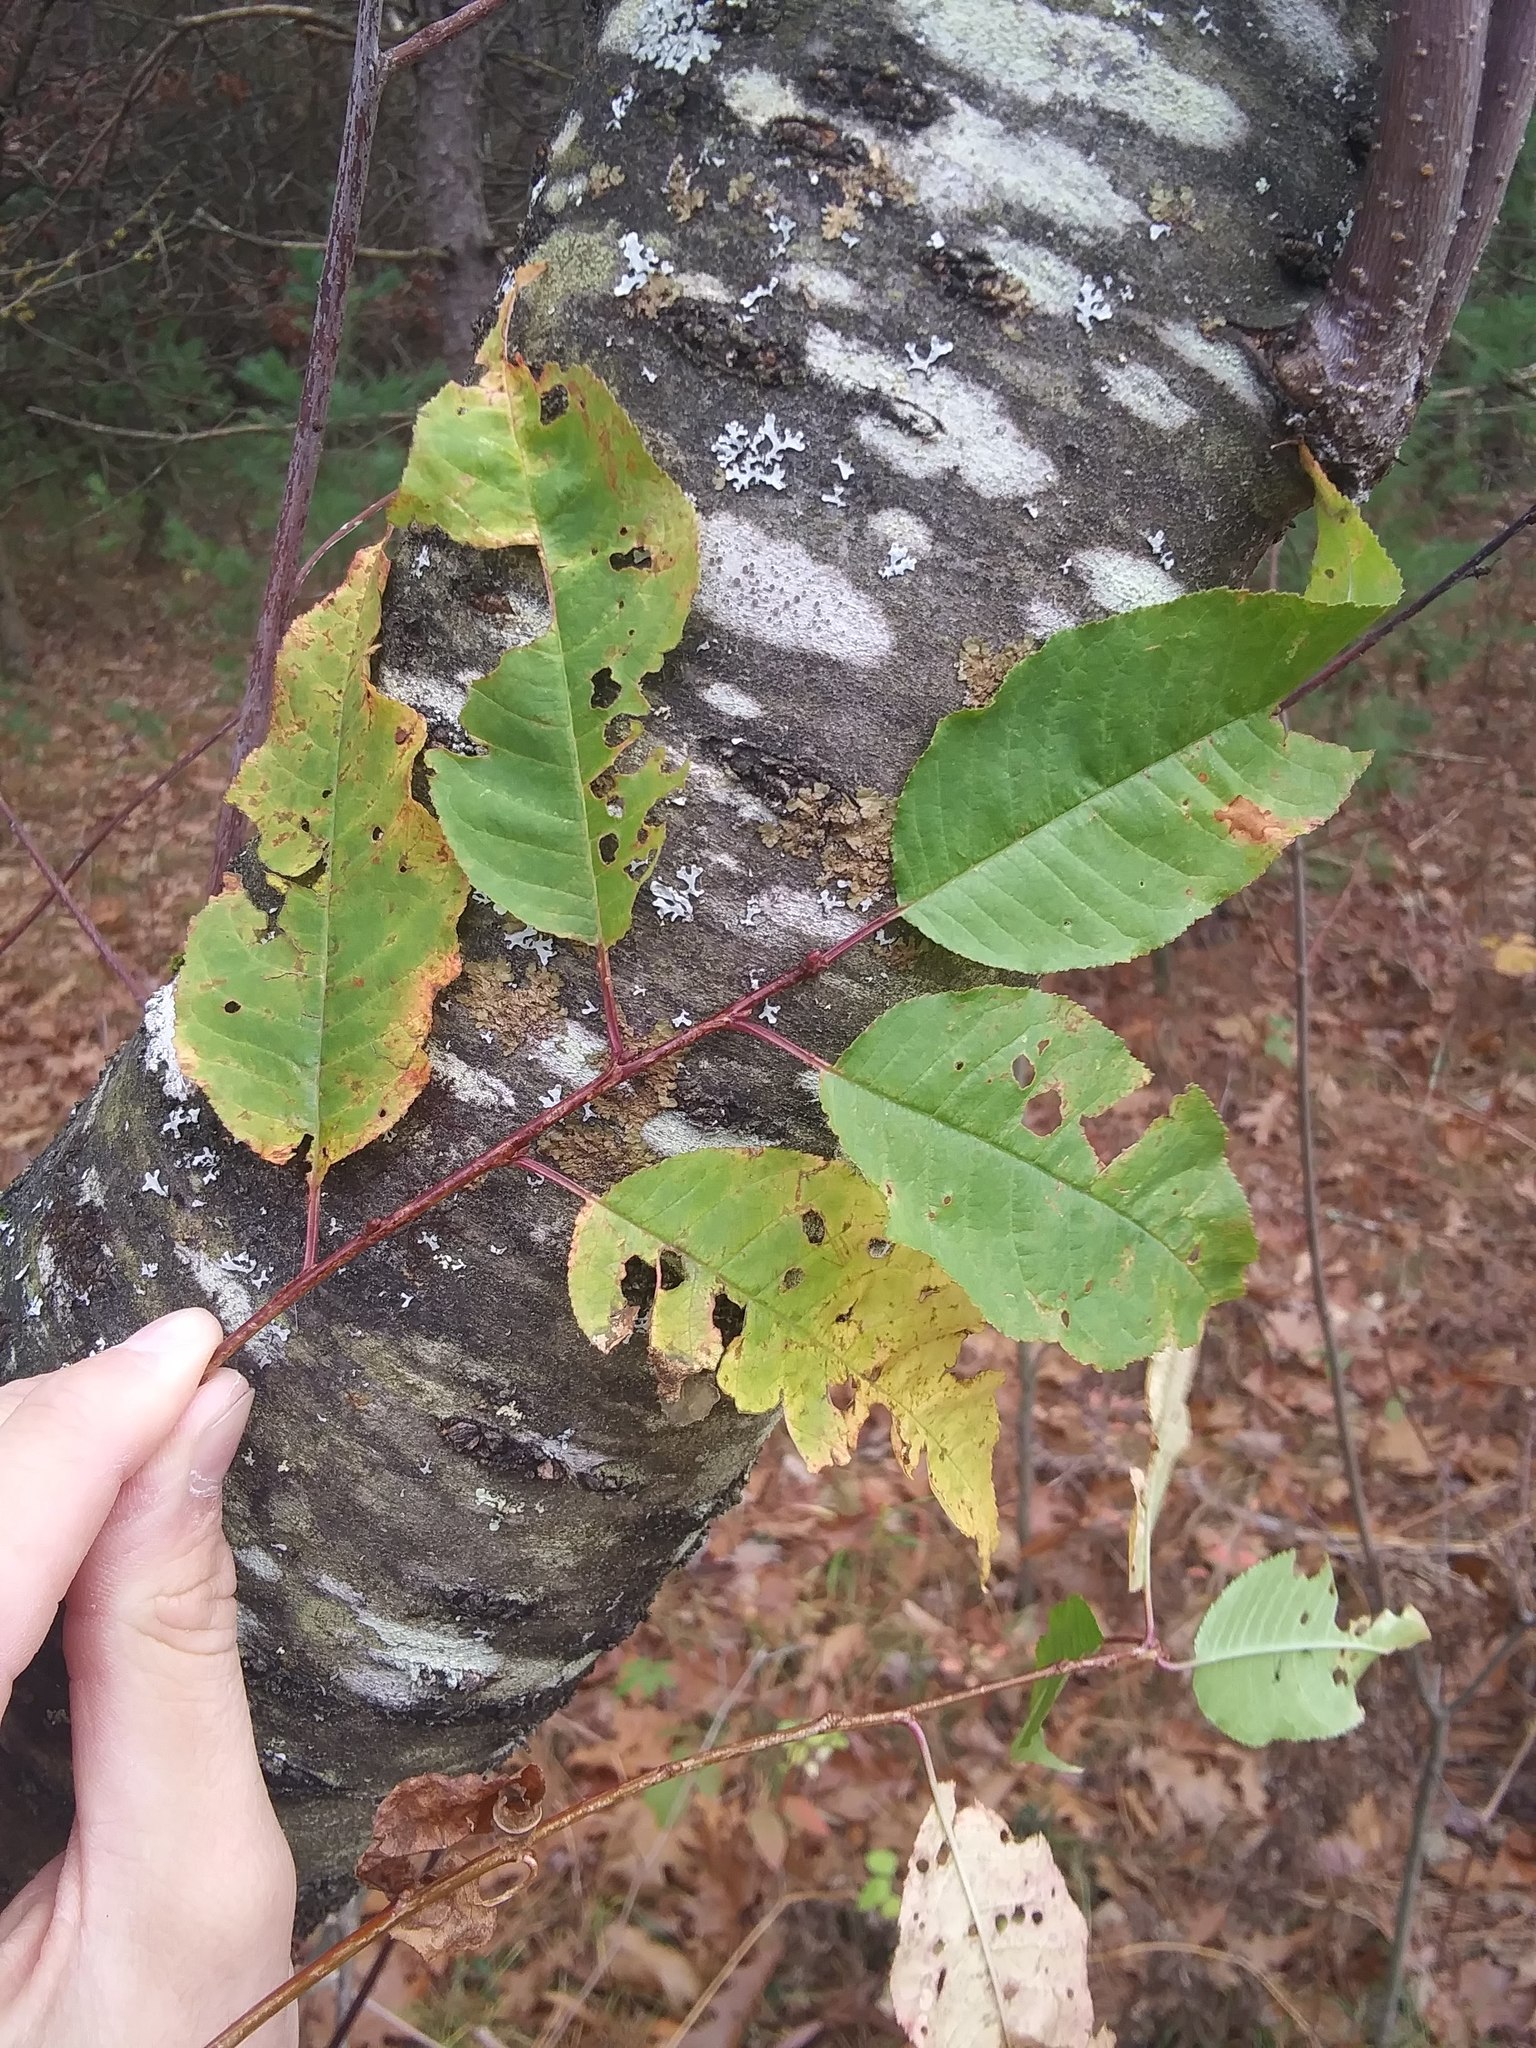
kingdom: Plantae
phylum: Tracheophyta
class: Magnoliopsida
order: Rosales
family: Rosaceae
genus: Prunus
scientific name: Prunus pensylvanica
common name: Pin cherry
